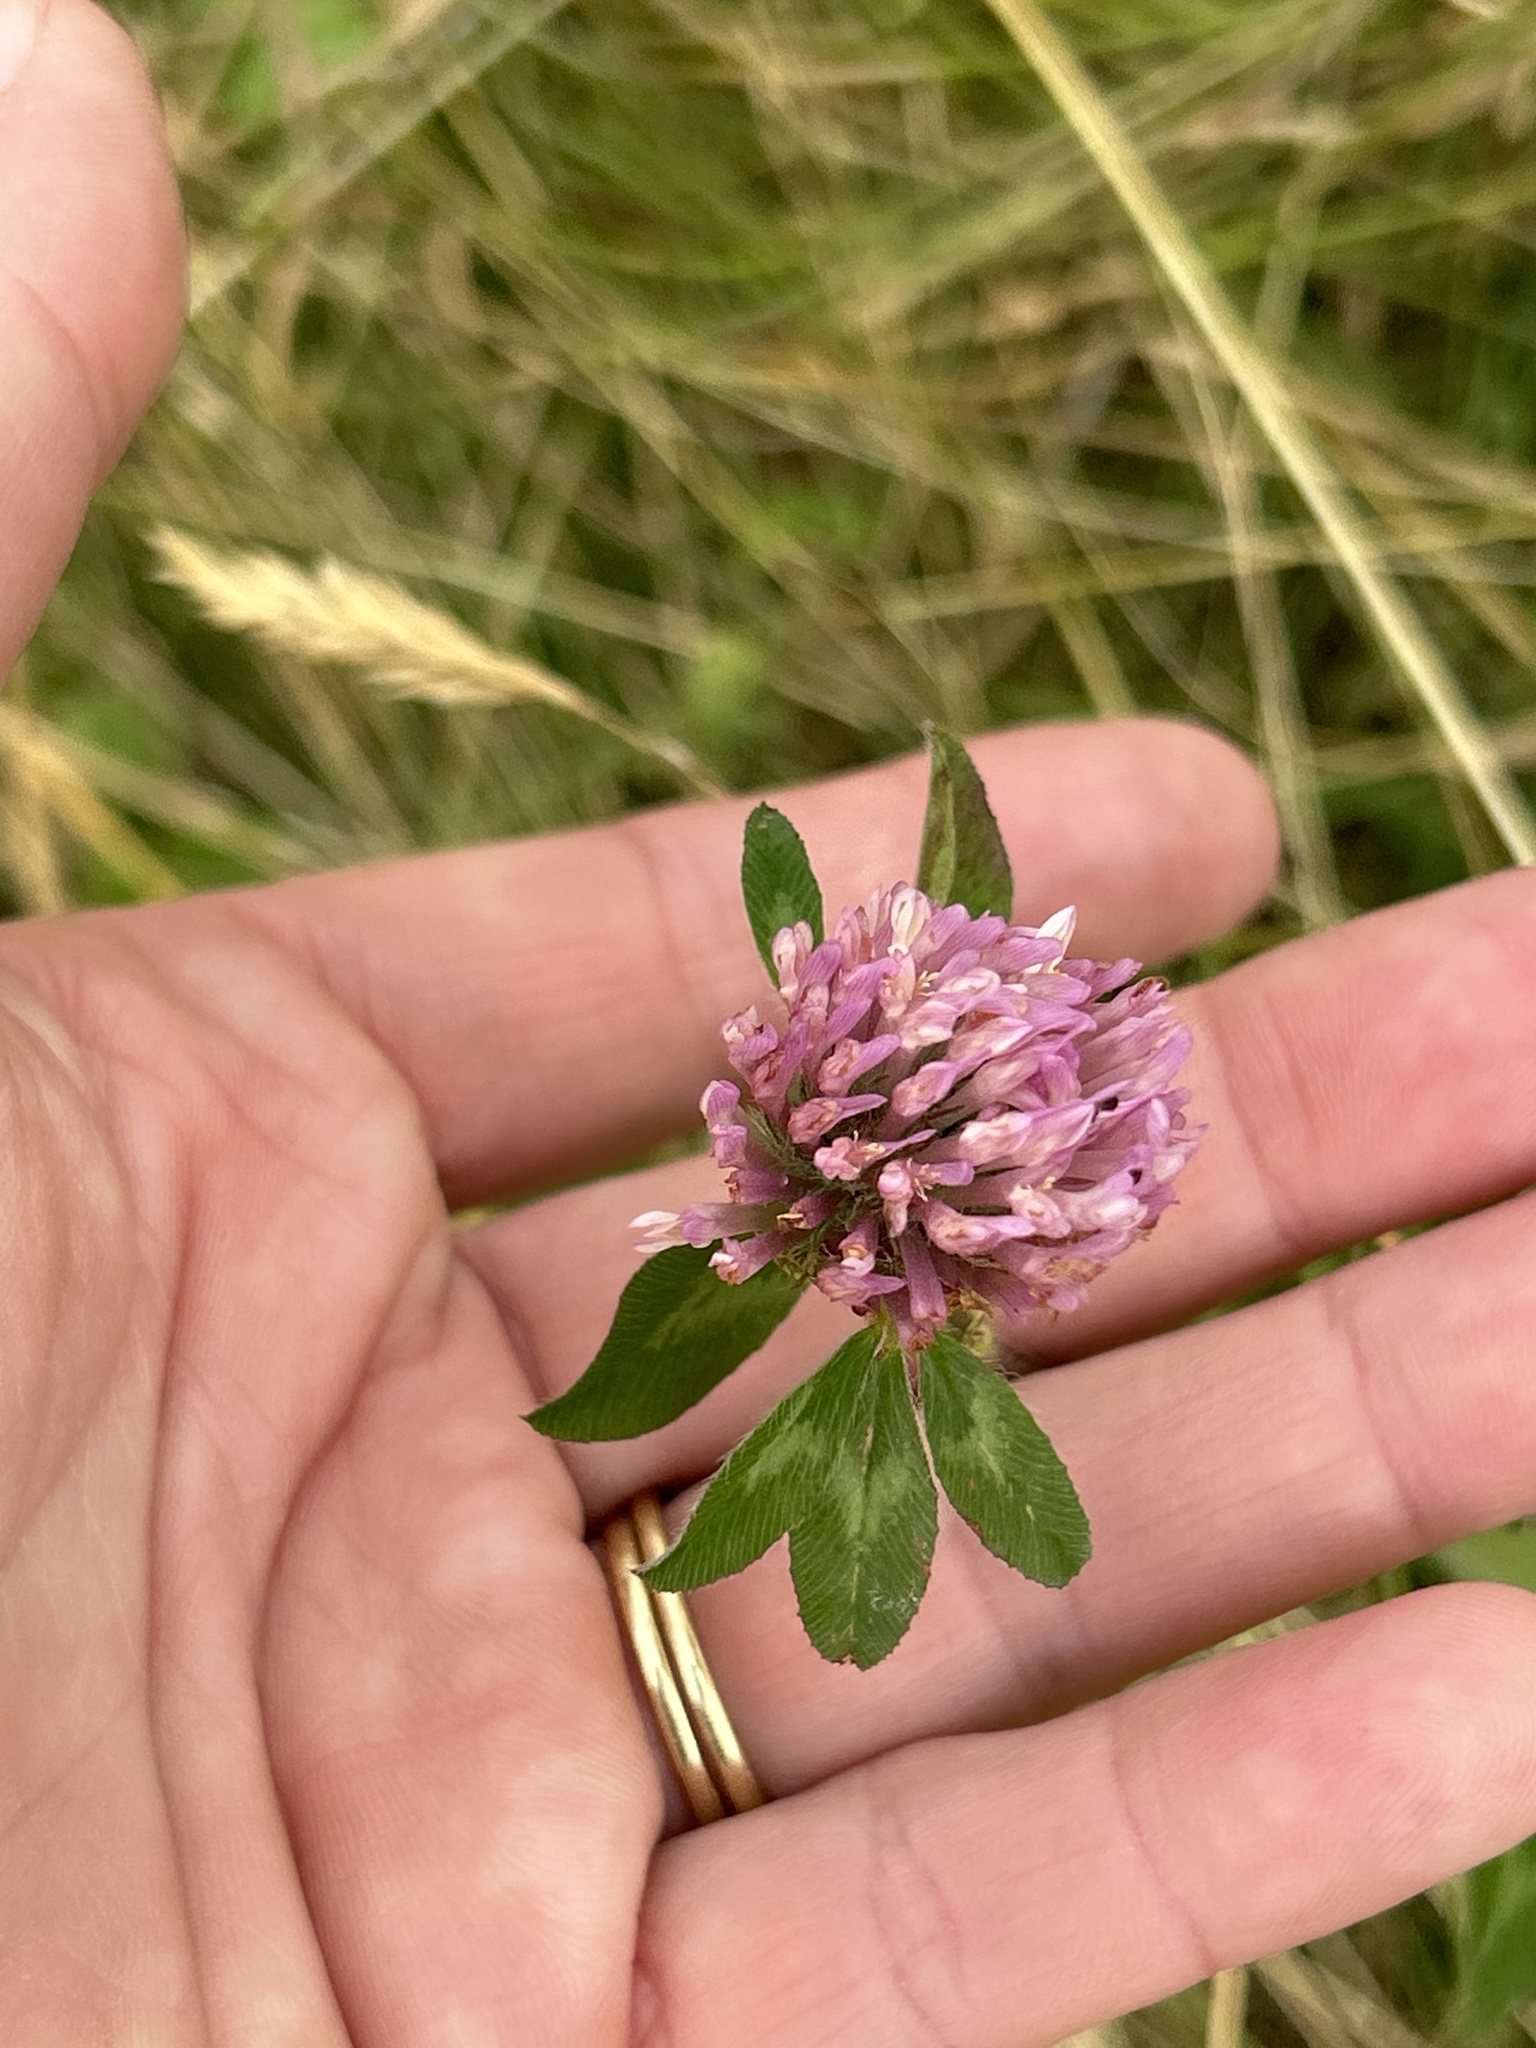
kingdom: Plantae
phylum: Tracheophyta
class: Magnoliopsida
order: Fabales
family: Fabaceae
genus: Trifolium
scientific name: Trifolium pratense
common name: Red clover
